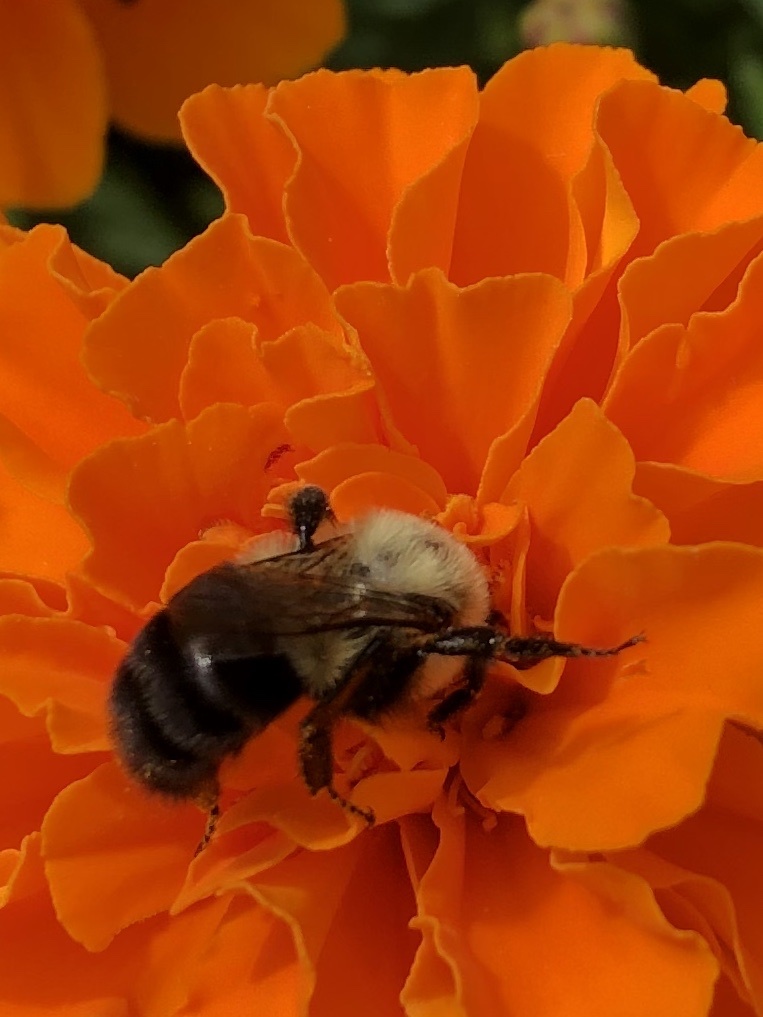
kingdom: Animalia
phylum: Arthropoda
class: Insecta
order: Hymenoptera
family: Apidae
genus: Bombus
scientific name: Bombus impatiens
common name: Common eastern bumble bee
